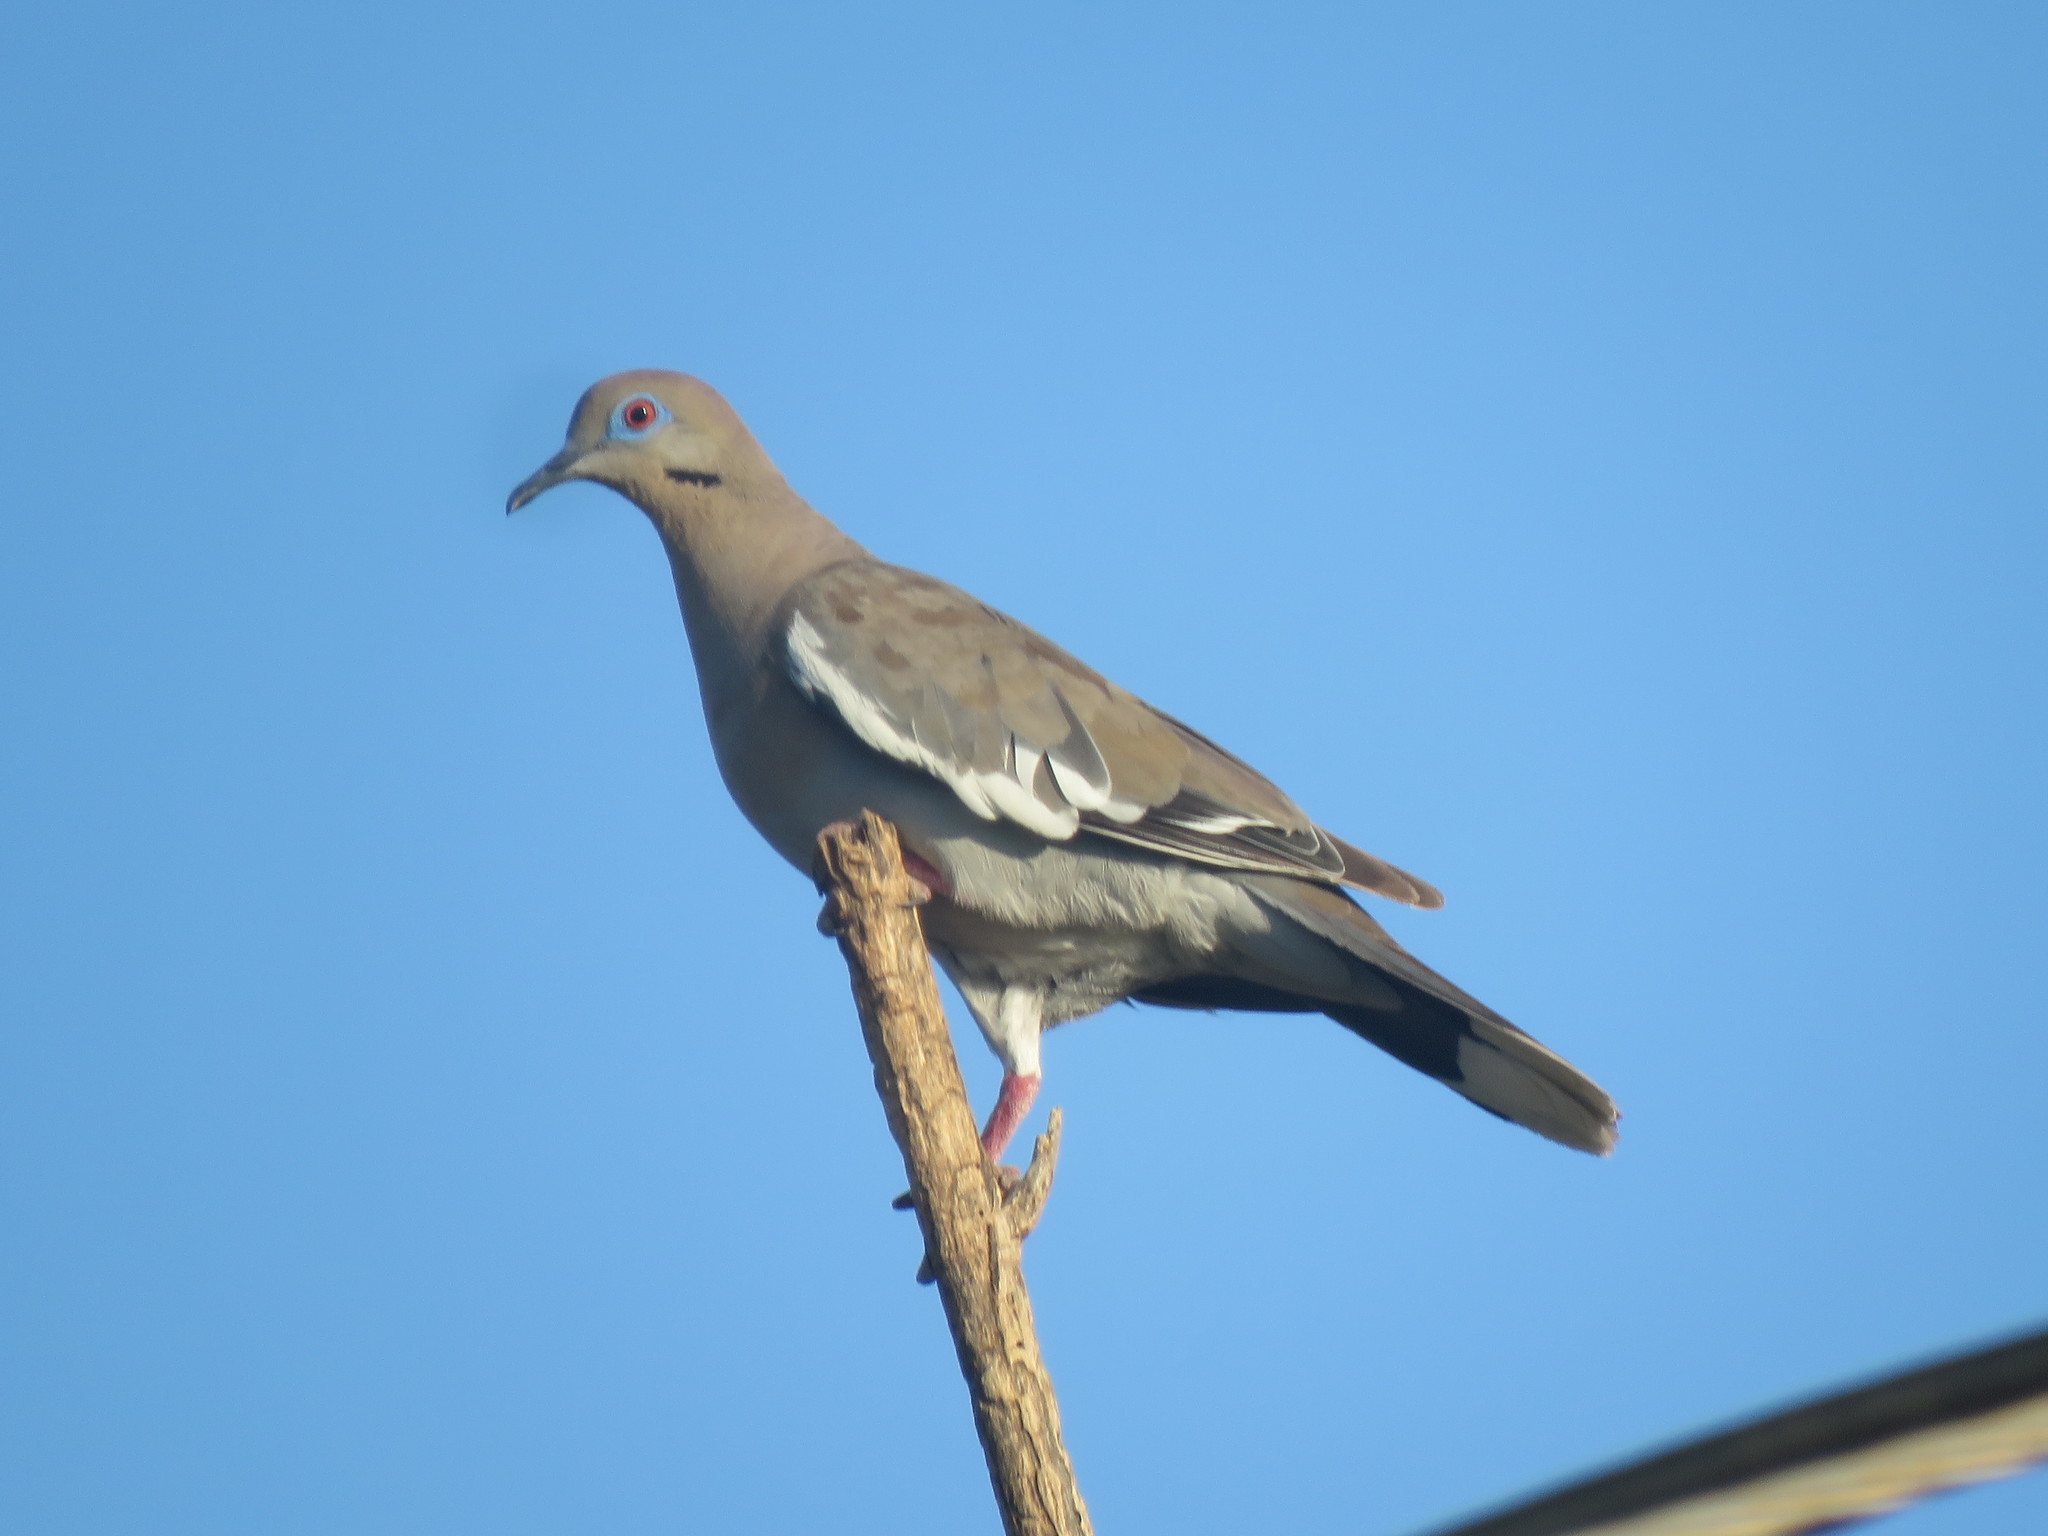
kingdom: Animalia
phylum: Chordata
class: Aves
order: Columbiformes
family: Columbidae
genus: Zenaida
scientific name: Zenaida asiatica
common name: White-winged dove
